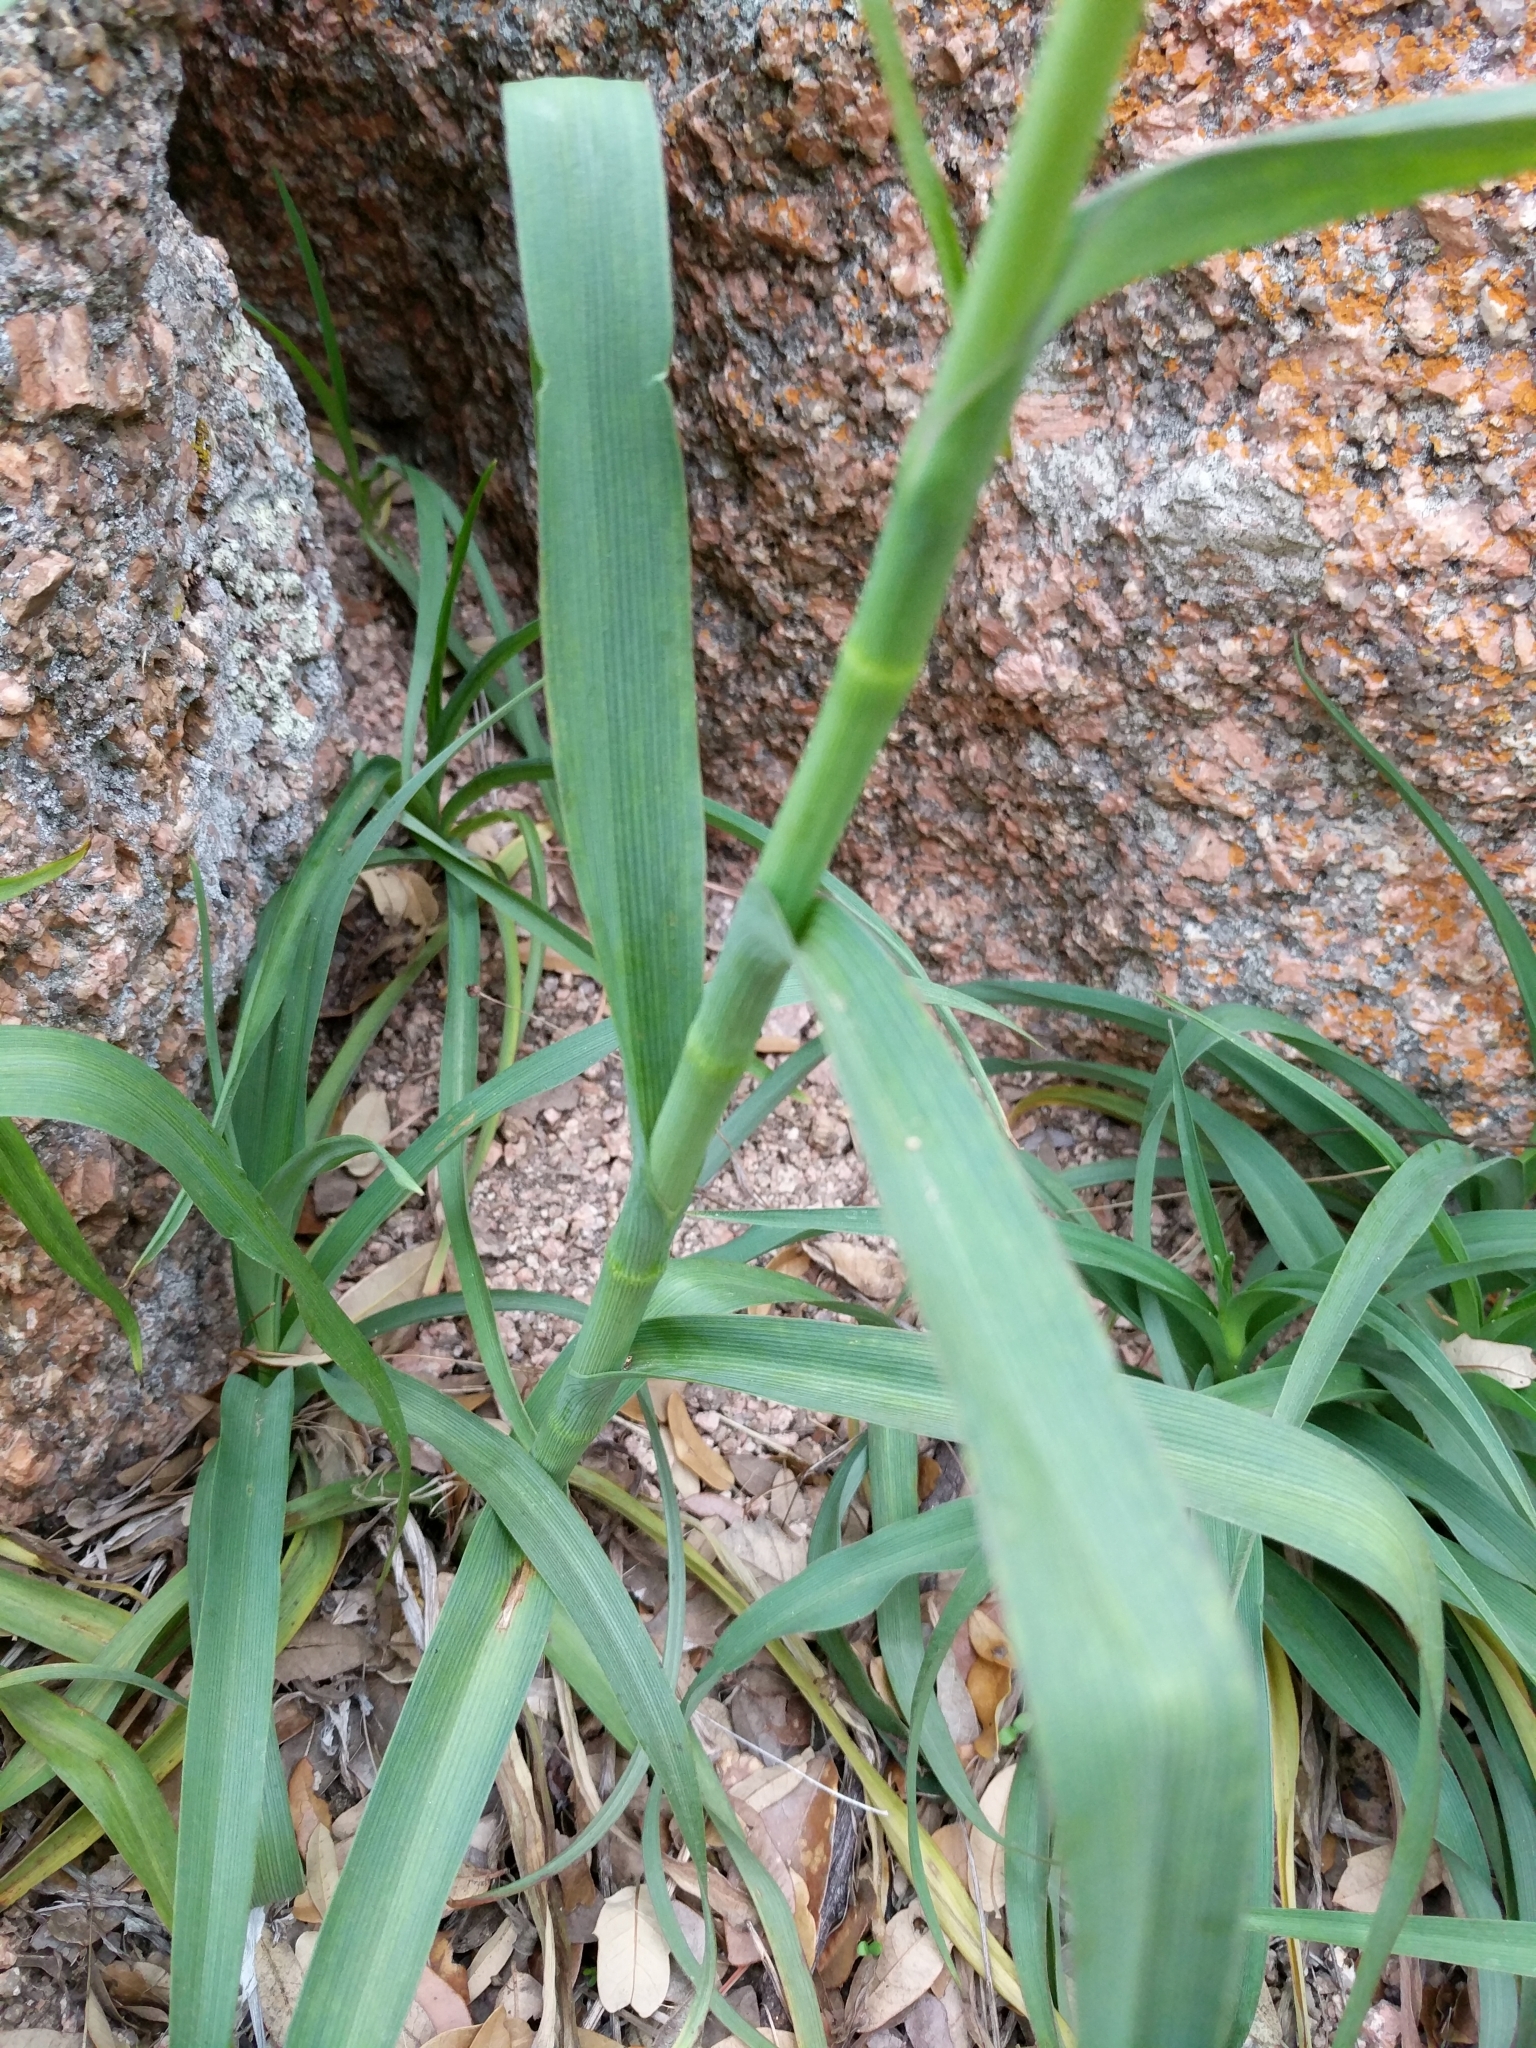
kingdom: Plantae
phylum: Tracheophyta
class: Liliopsida
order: Commelinales
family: Commelinaceae
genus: Tradescantia
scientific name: Tradescantia gigantea
